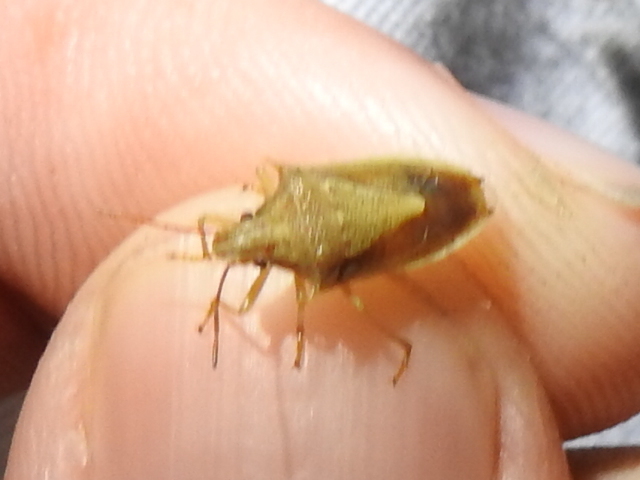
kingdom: Animalia
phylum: Arthropoda
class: Insecta
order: Hemiptera
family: Pentatomidae
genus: Oebalus
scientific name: Oebalus pugnax
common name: Rice stink bug
